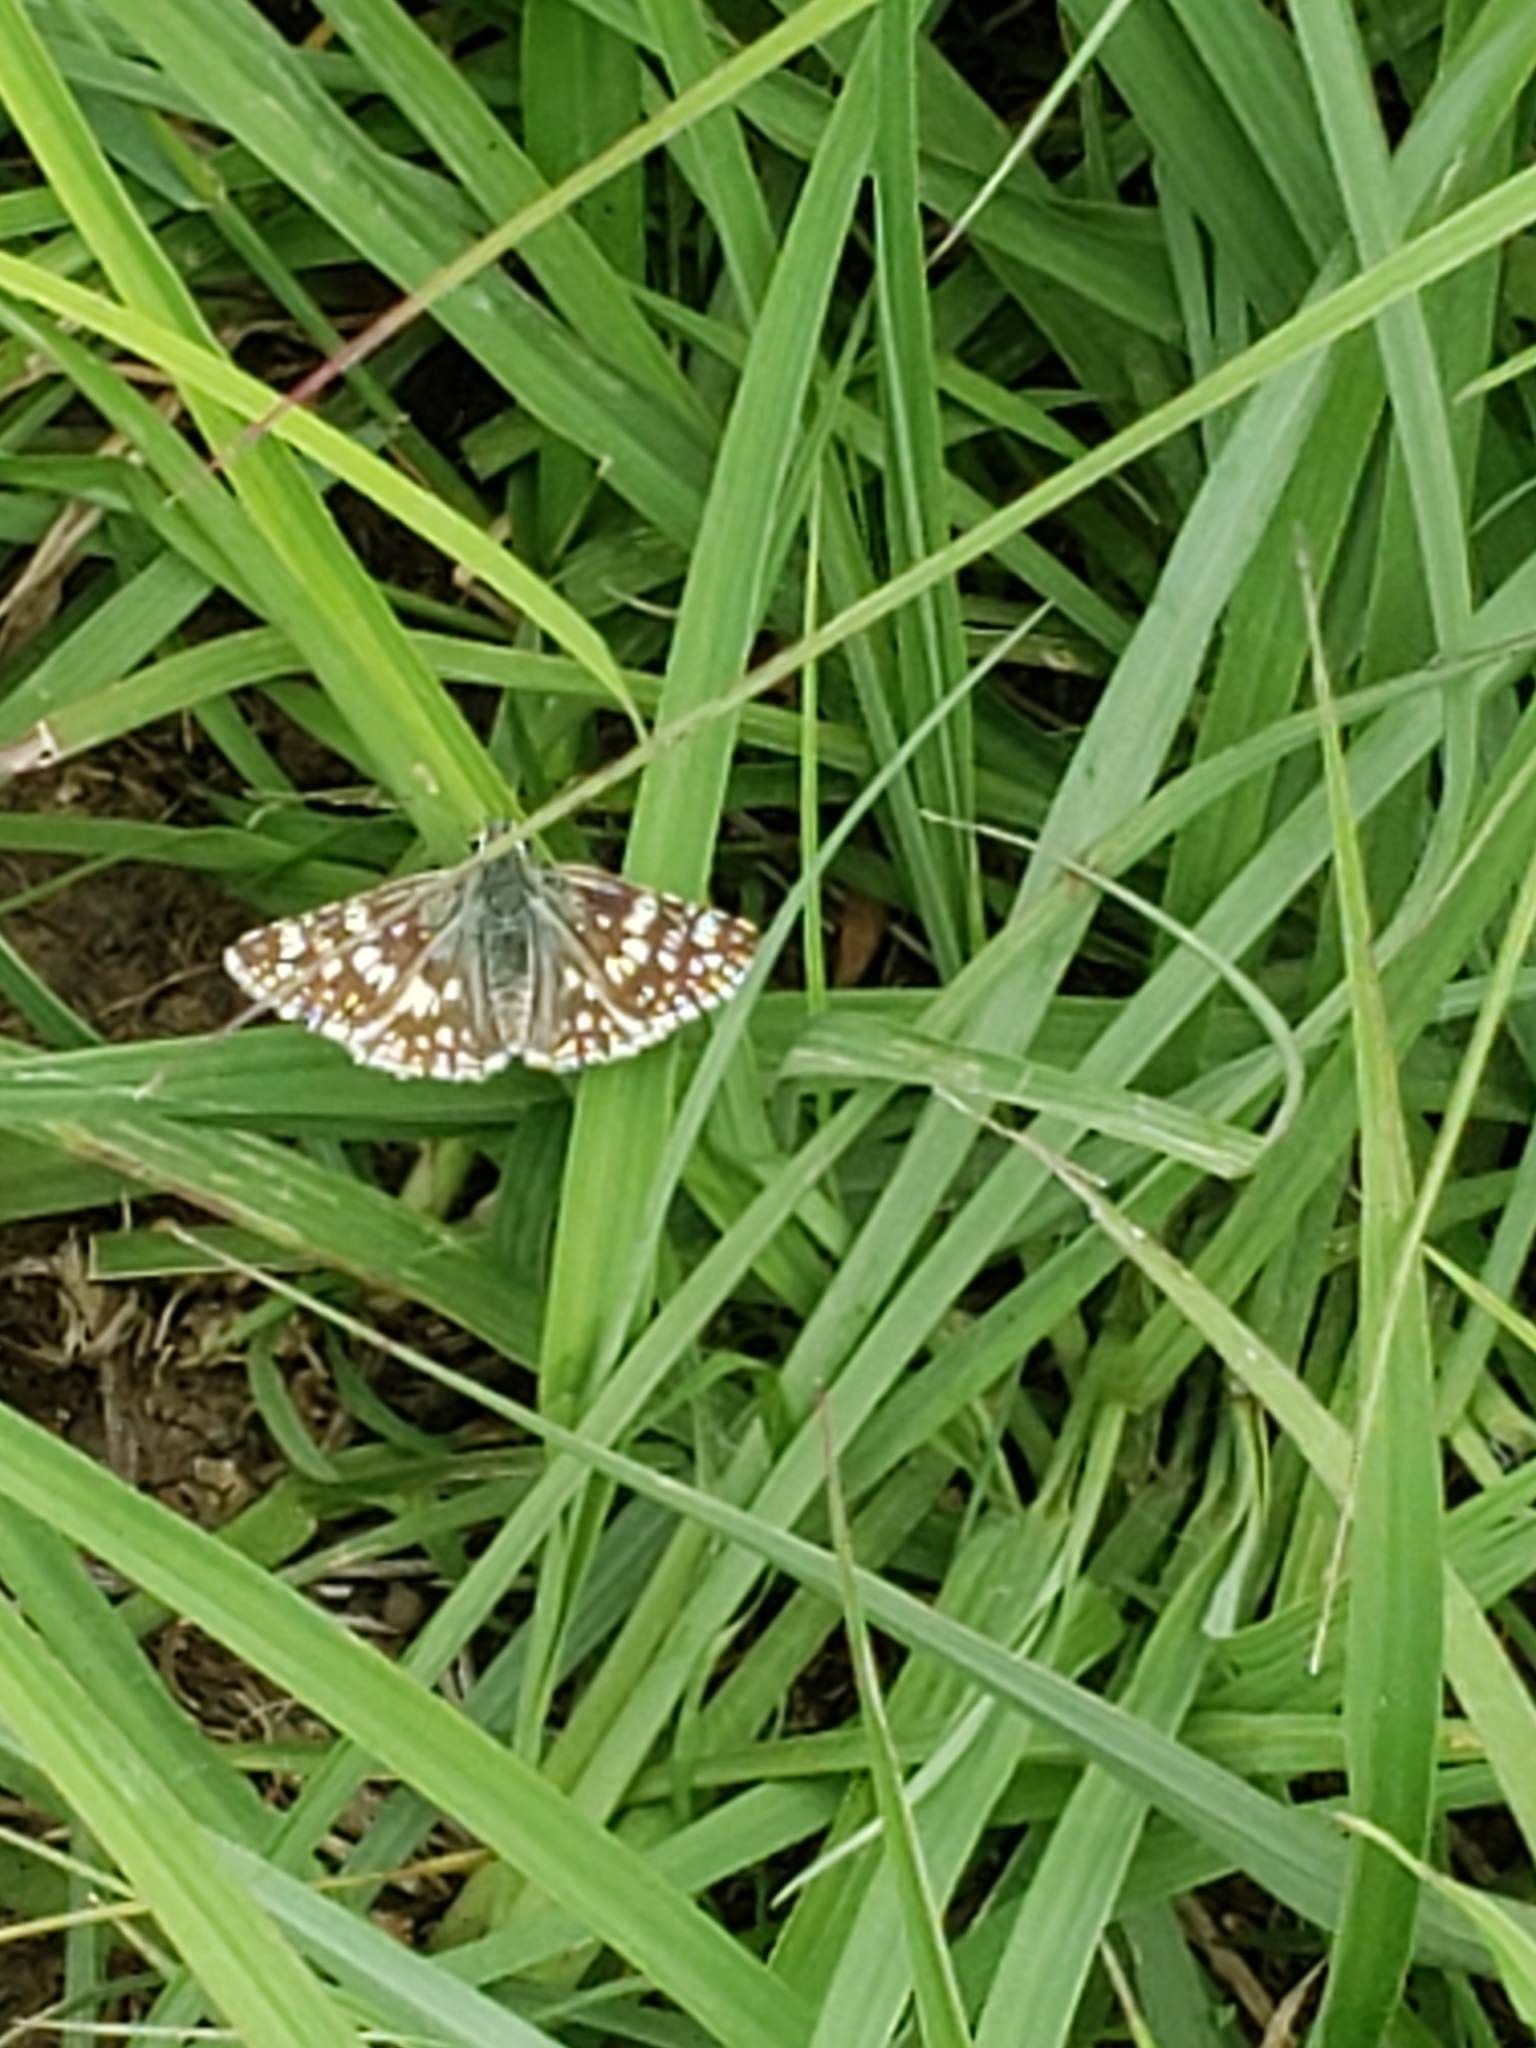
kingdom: Animalia
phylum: Arthropoda
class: Insecta
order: Lepidoptera
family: Hesperiidae
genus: Burnsius
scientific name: Burnsius communis
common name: Common checkered-skipper
